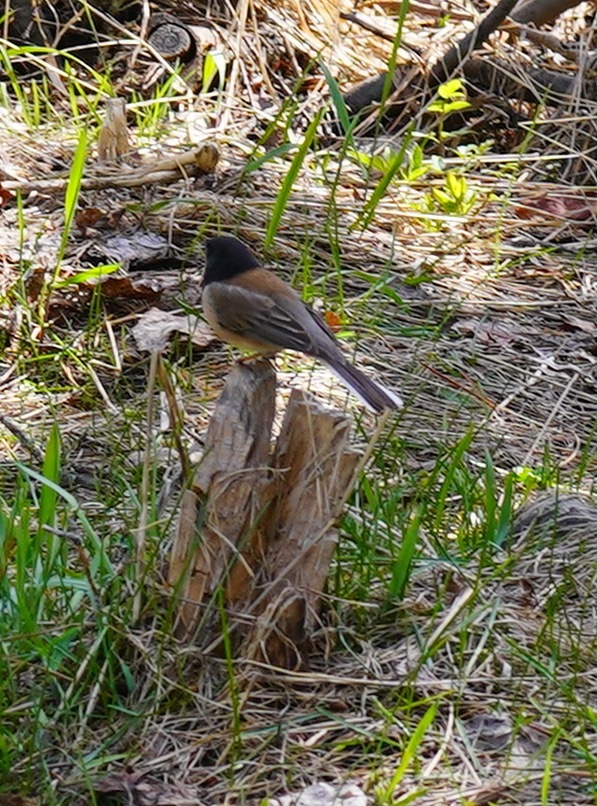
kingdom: Animalia
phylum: Chordata
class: Aves
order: Passeriformes
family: Passerellidae
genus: Junco
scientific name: Junco hyemalis
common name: Dark-eyed junco
